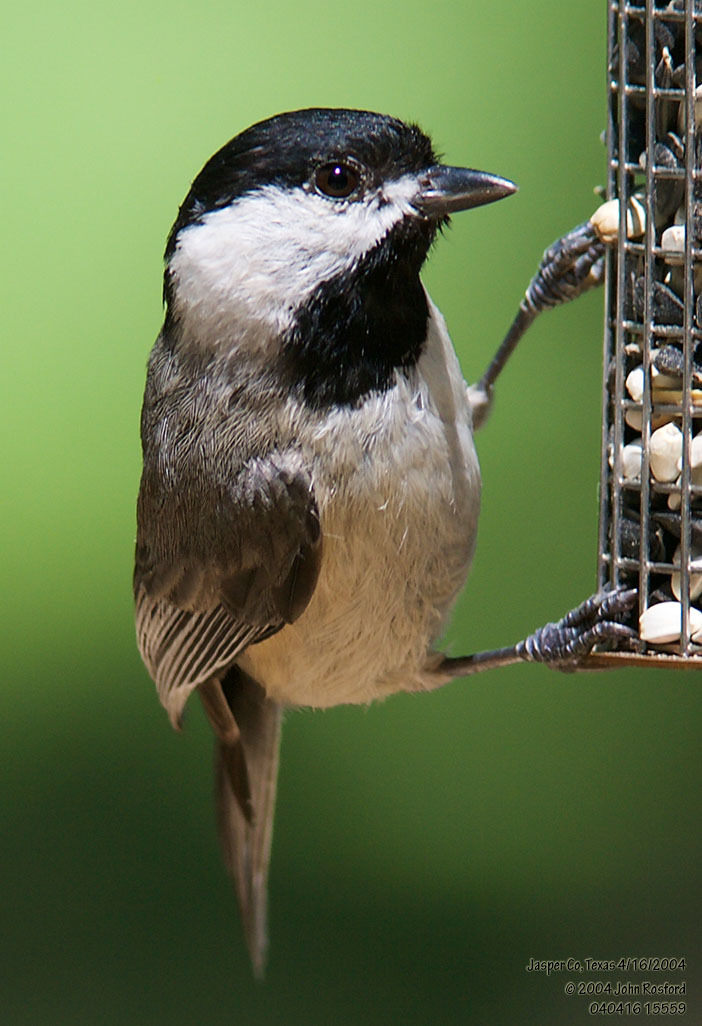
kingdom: Animalia
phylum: Chordata
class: Aves
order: Passeriformes
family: Paridae
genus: Poecile
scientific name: Poecile carolinensis
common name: Carolina chickadee
